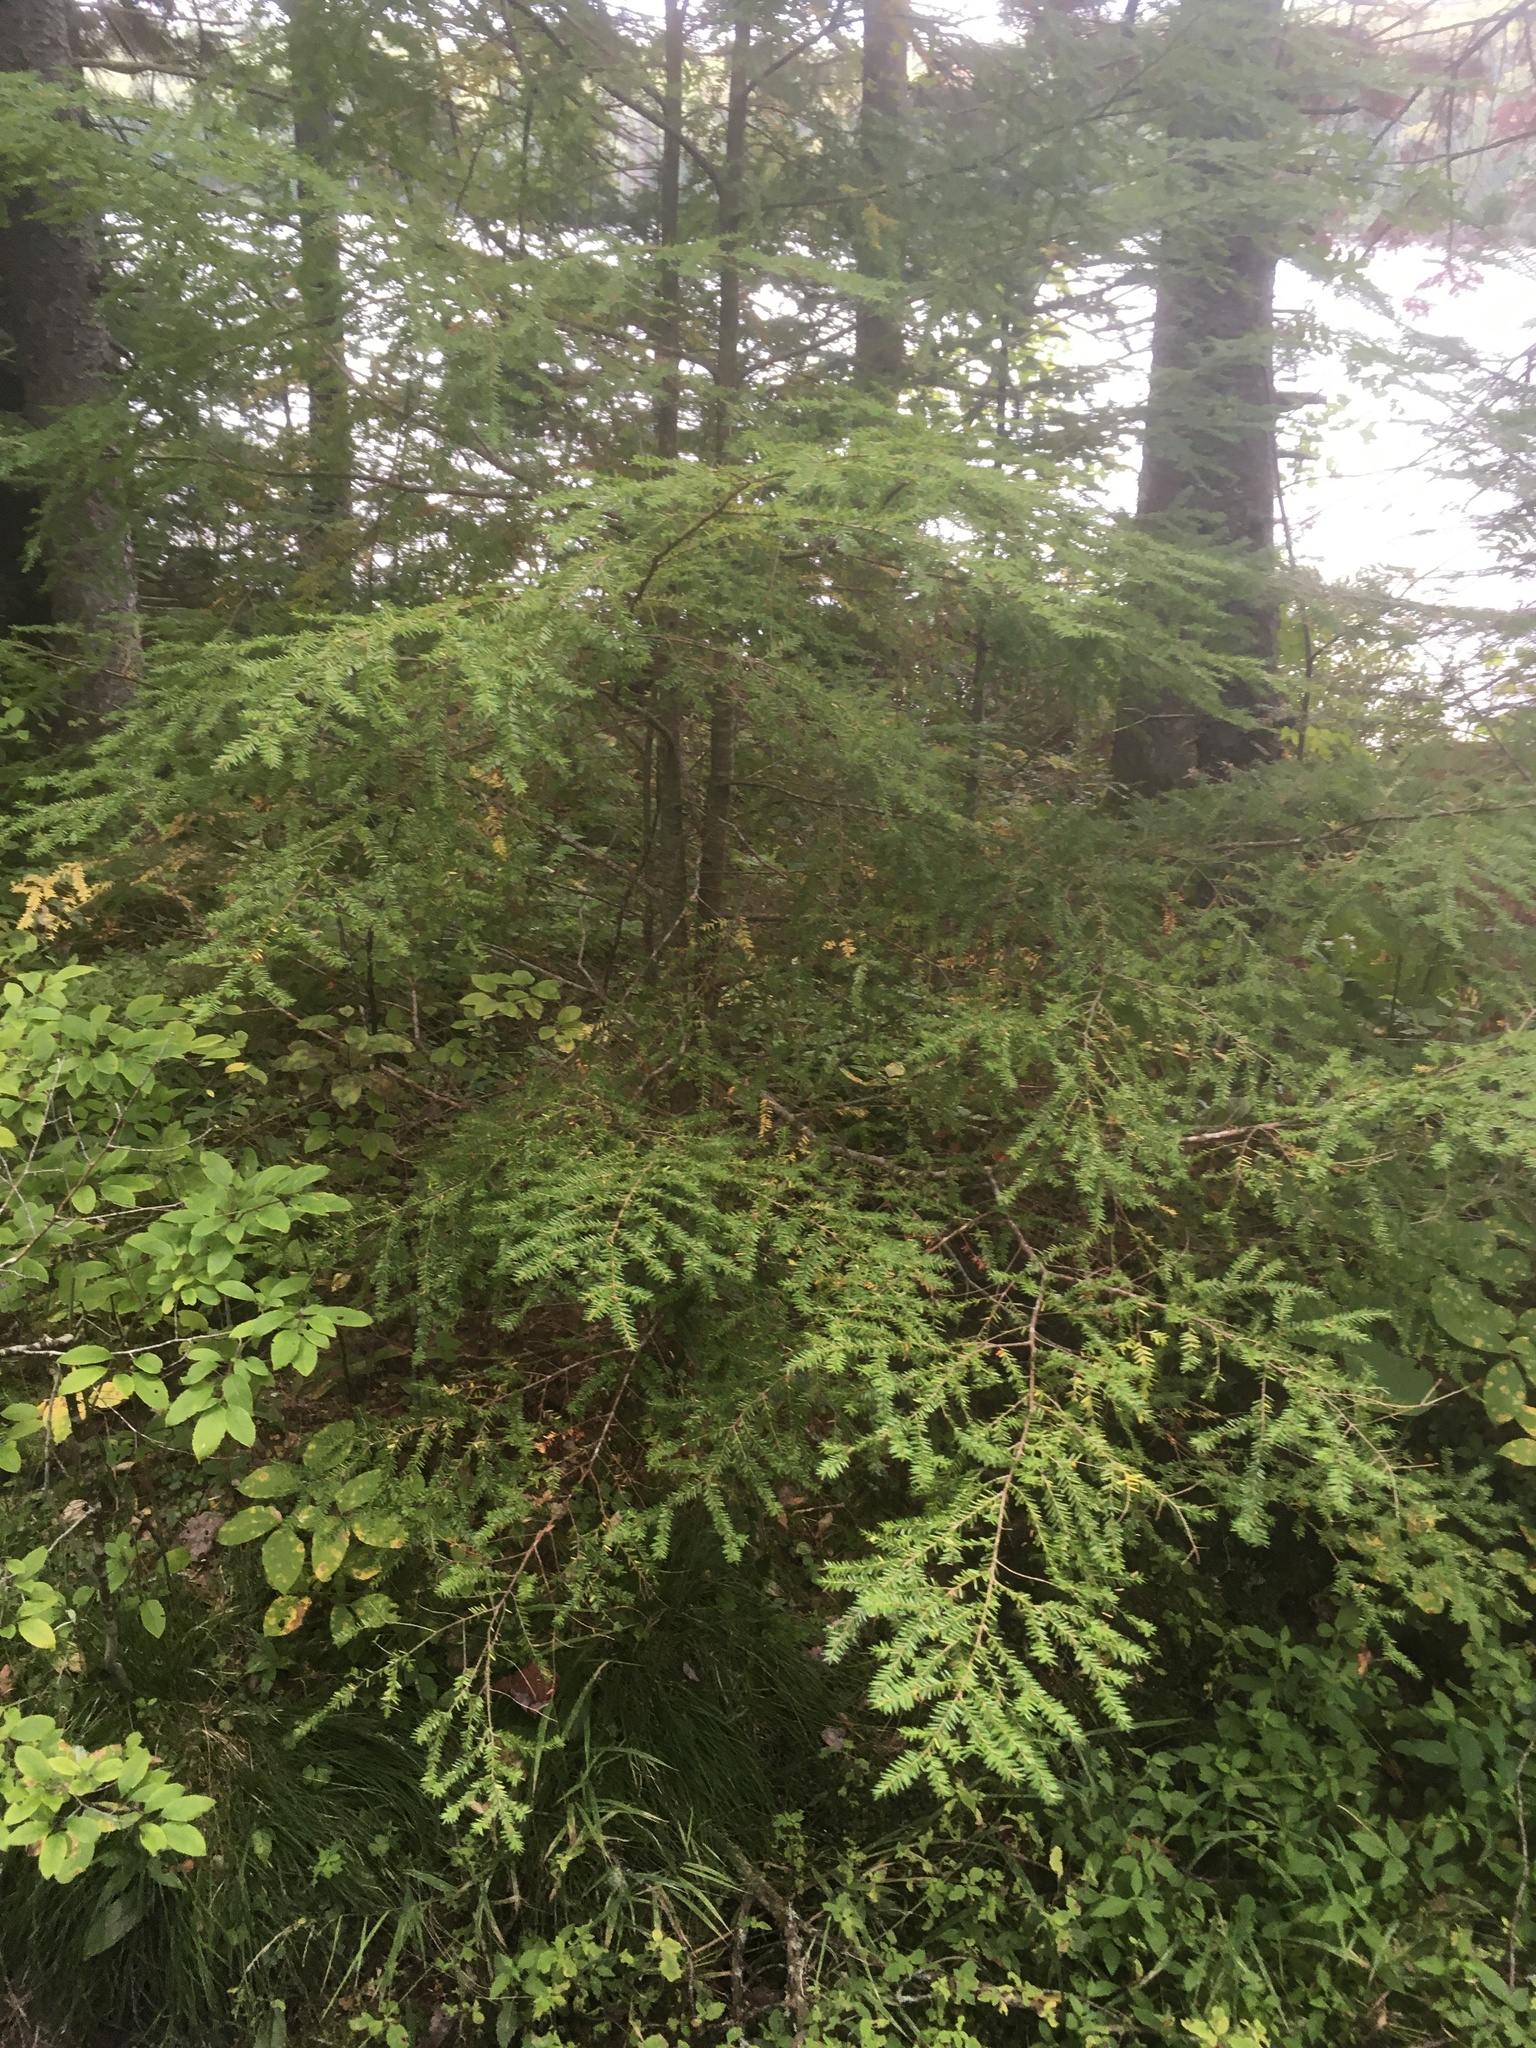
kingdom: Plantae
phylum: Tracheophyta
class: Pinopsida
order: Pinales
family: Pinaceae
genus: Tsuga
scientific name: Tsuga canadensis
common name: Eastern hemlock
